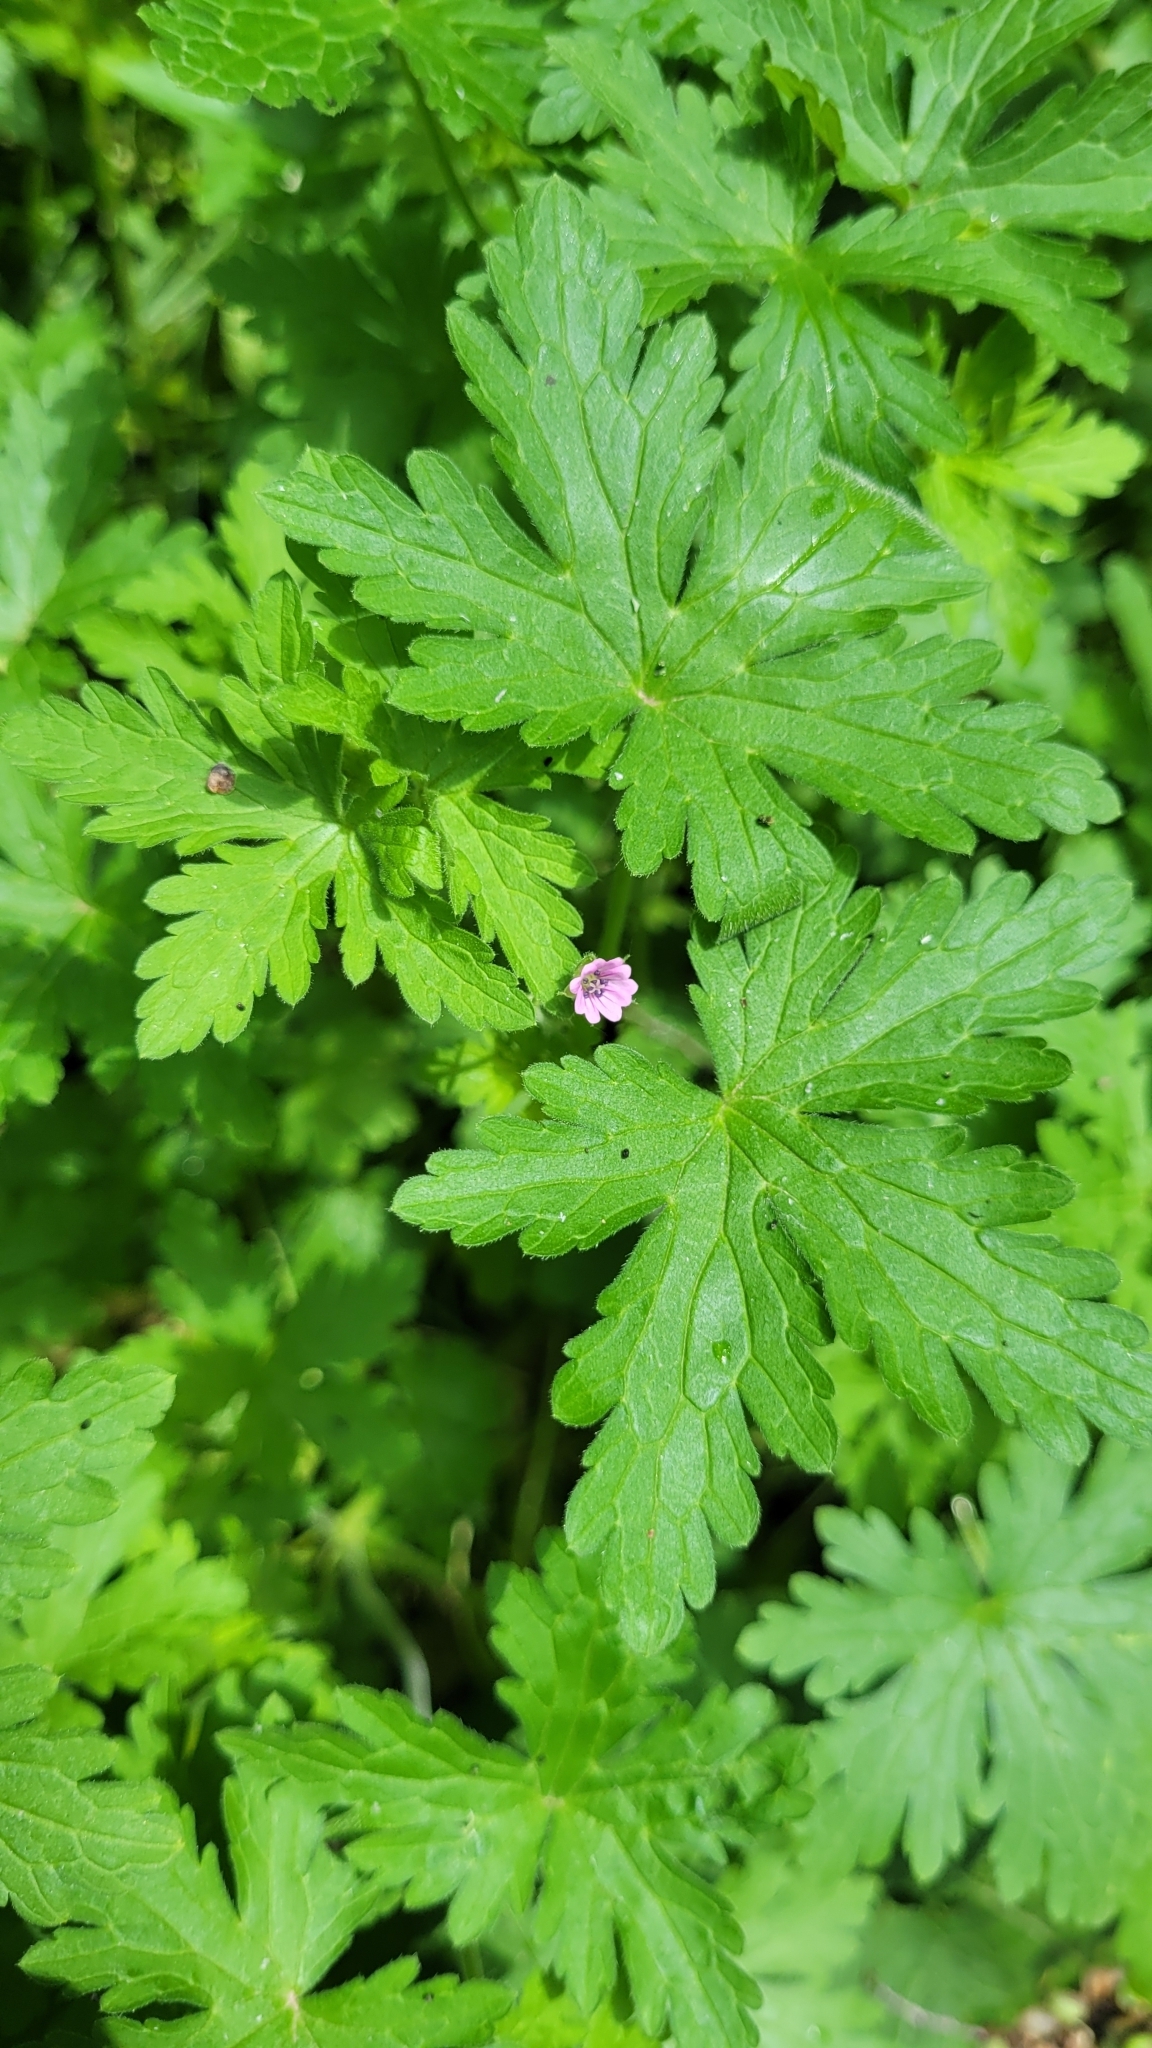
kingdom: Plantae
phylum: Tracheophyta
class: Magnoliopsida
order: Geraniales
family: Geraniaceae
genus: Geranium
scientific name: Geranium divaricatum
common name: Spreading crane's-bill
